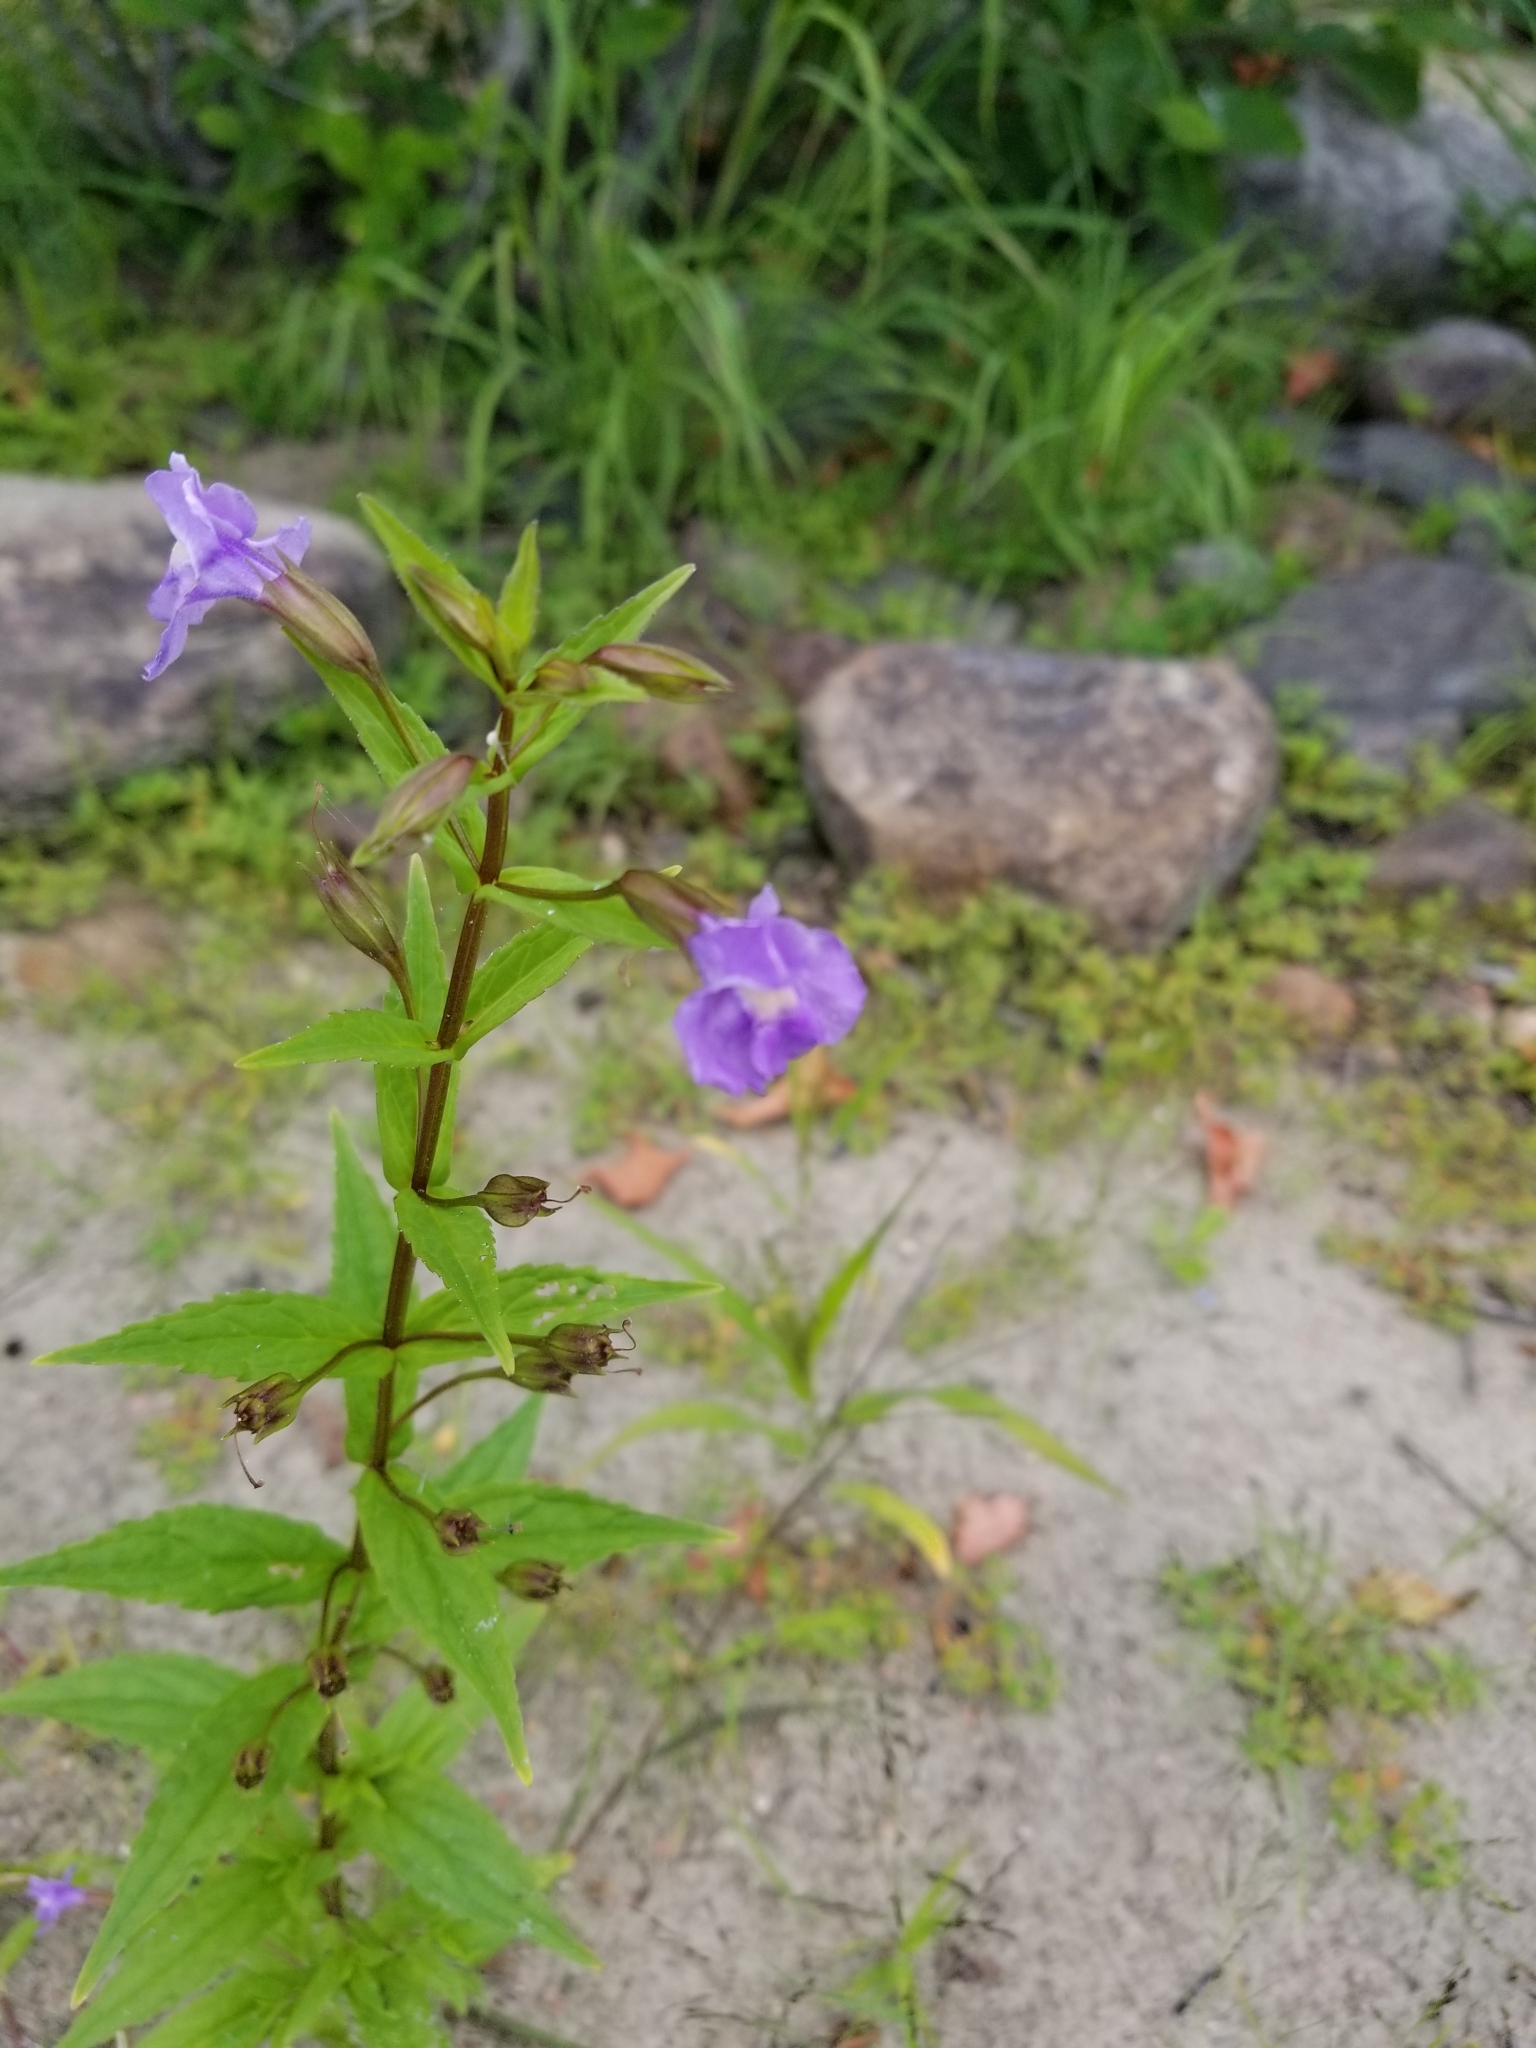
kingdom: Plantae
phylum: Tracheophyta
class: Magnoliopsida
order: Lamiales
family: Phrymaceae
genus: Mimulus
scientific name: Mimulus ringens
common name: Allegheny monkeyflower
